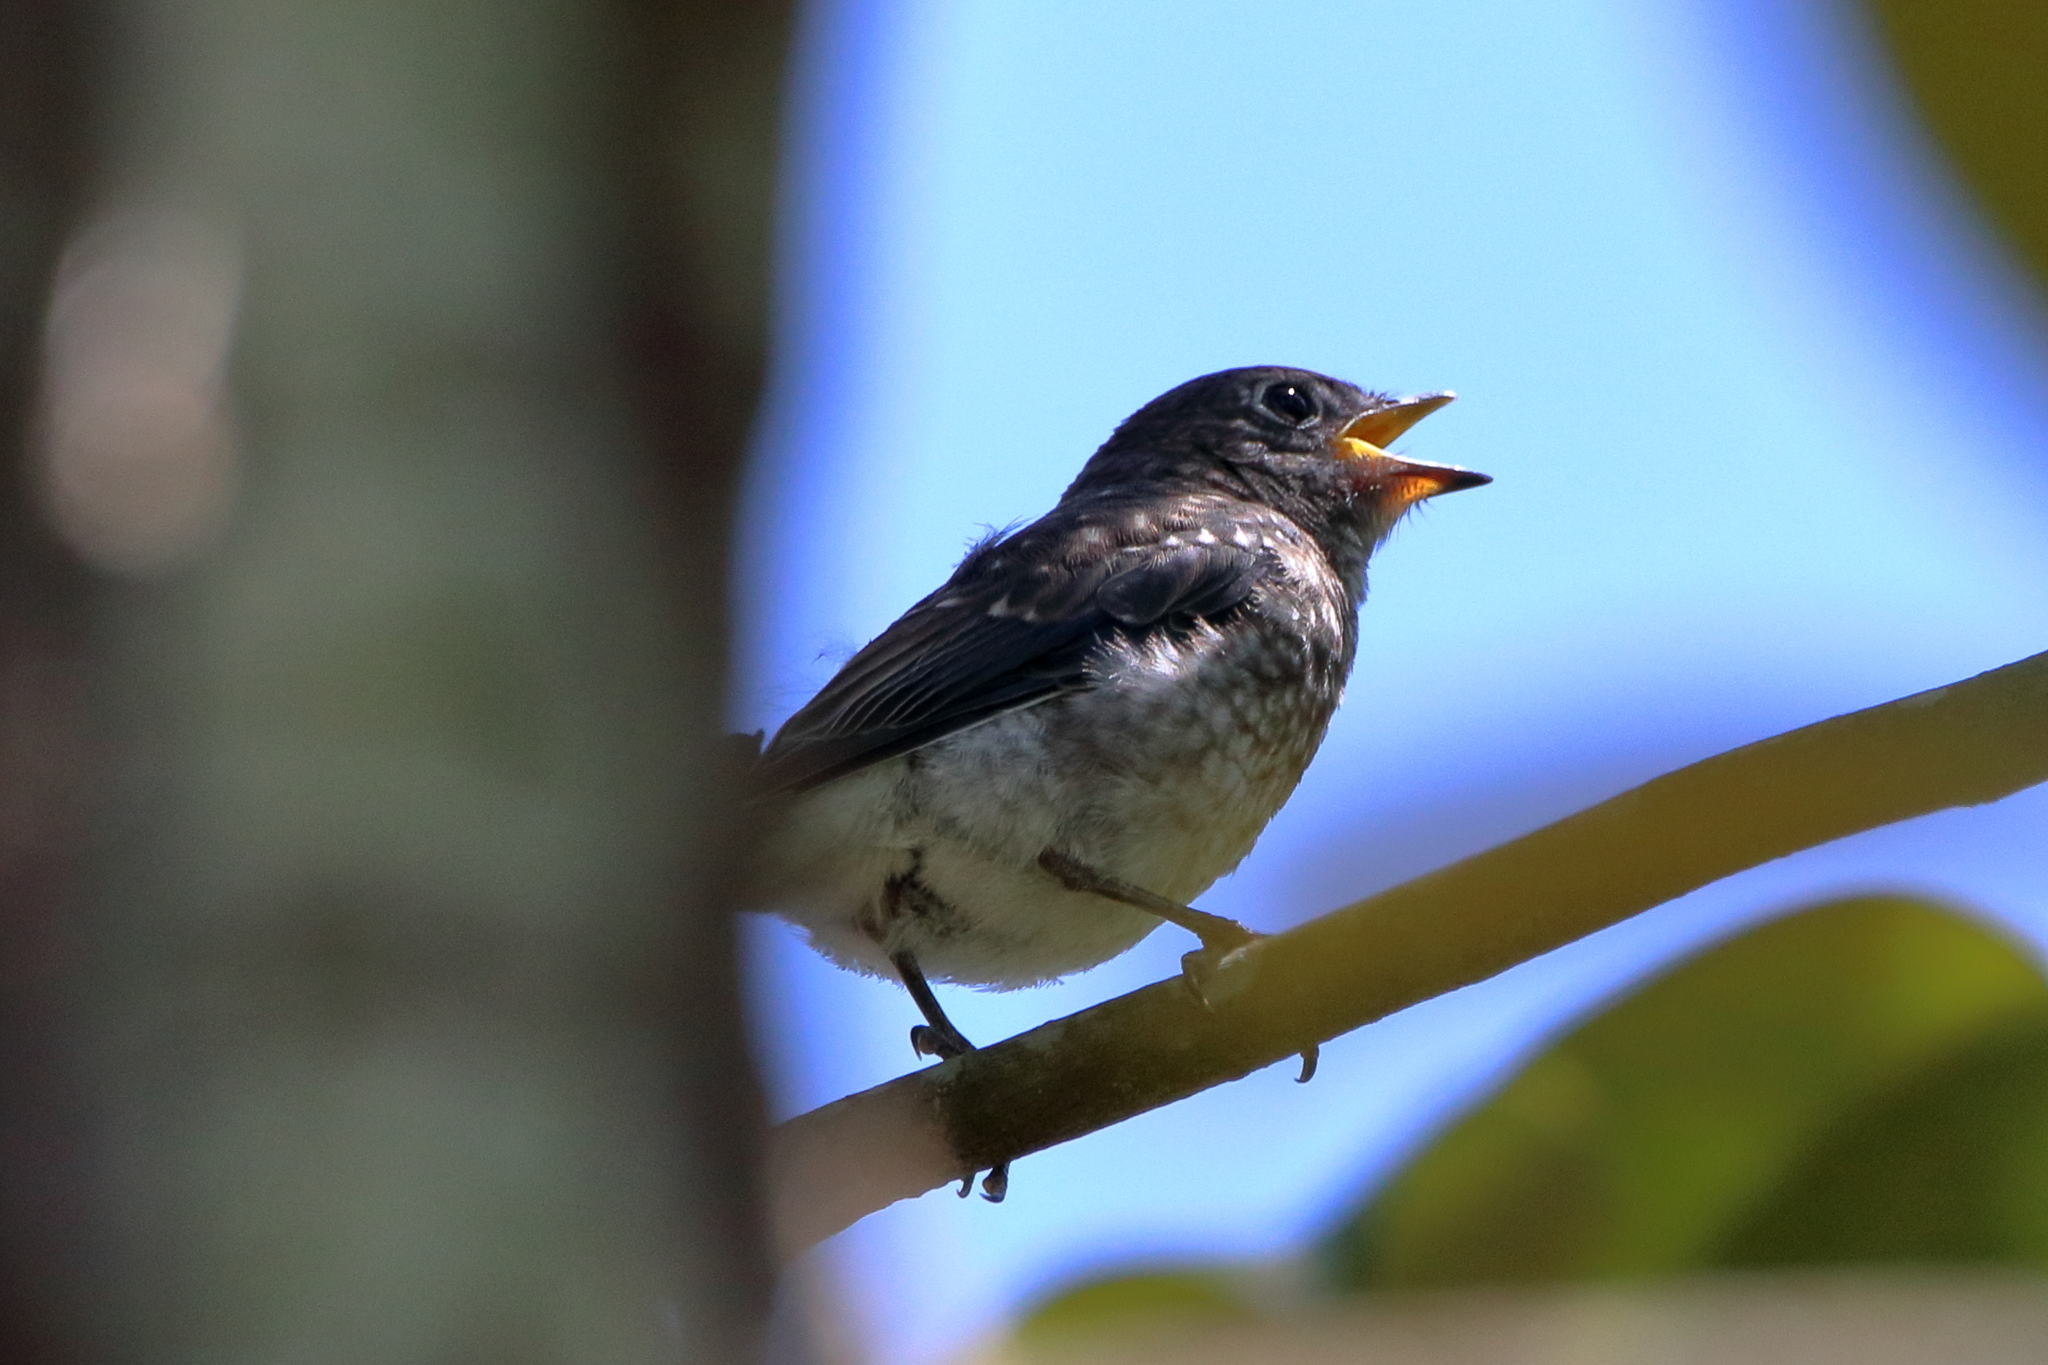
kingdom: Animalia
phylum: Chordata
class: Aves
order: Passeriformes
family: Turdidae
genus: Sialia
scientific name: Sialia sialis
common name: Eastern bluebird
